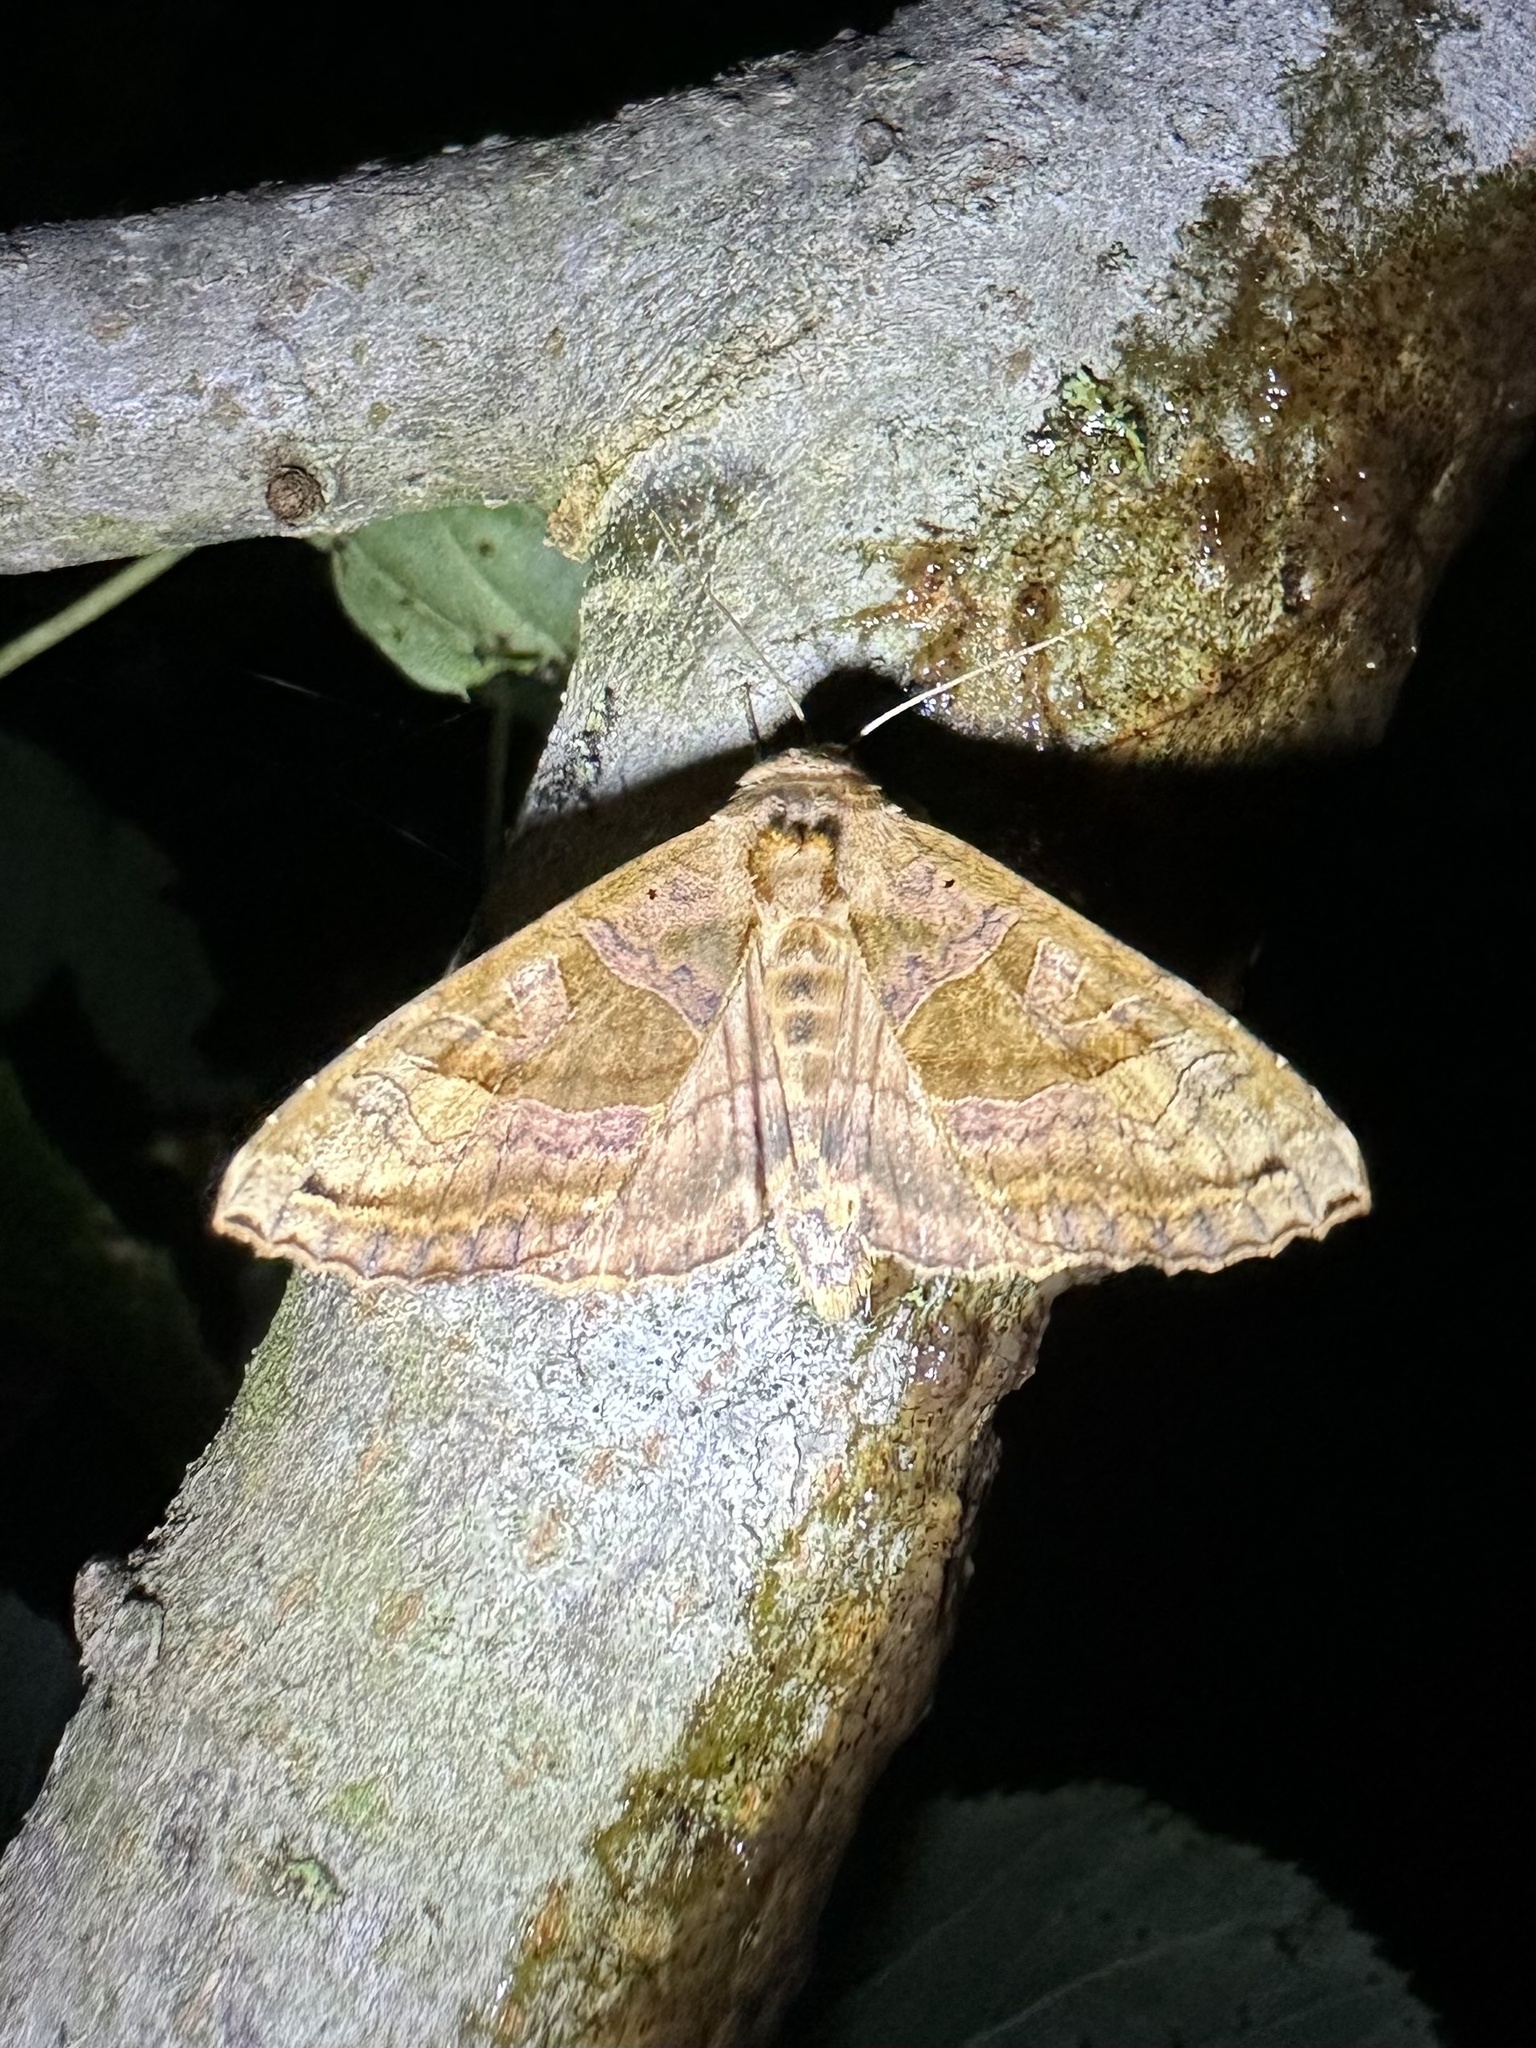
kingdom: Animalia
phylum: Arthropoda
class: Insecta
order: Lepidoptera
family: Noctuidae
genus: Phlogophora
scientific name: Phlogophora periculosa
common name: Brown angle shades
